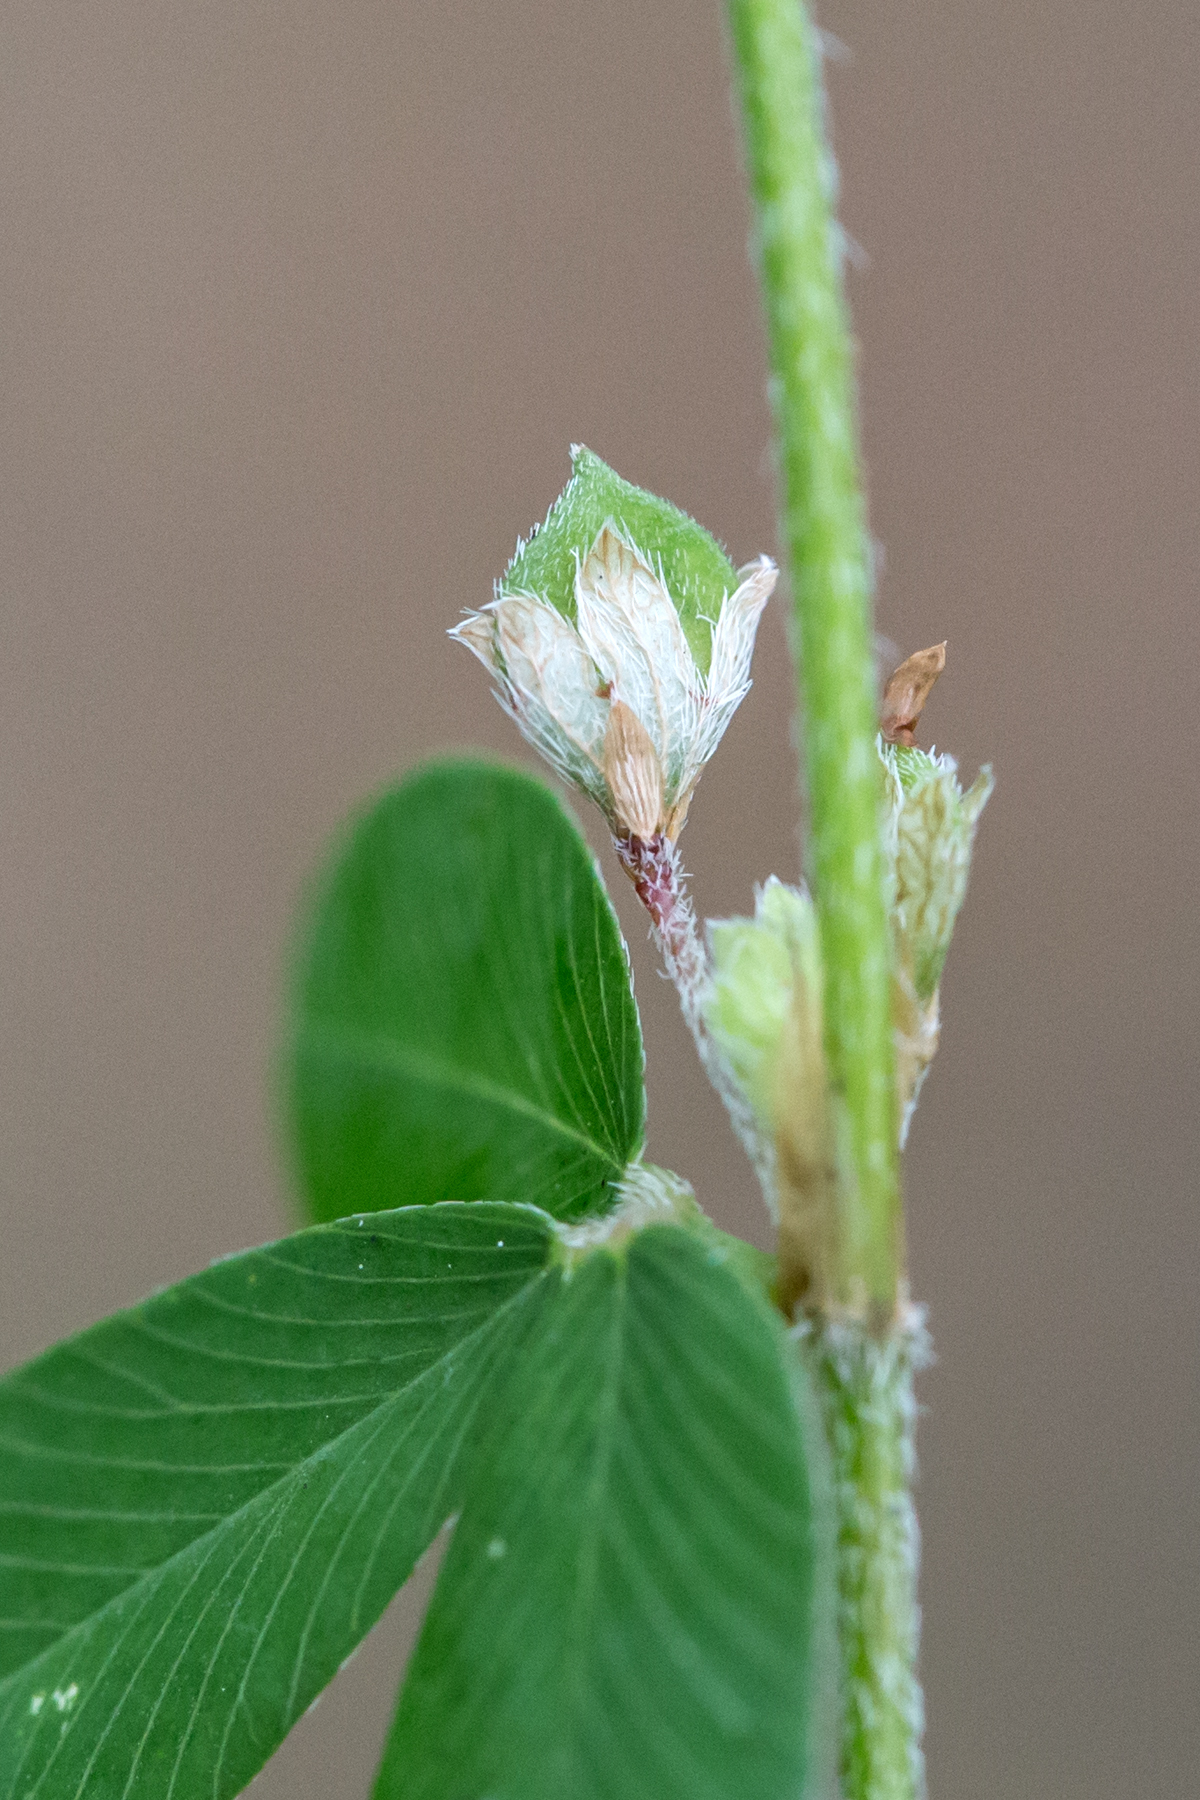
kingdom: Plantae
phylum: Tracheophyta
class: Magnoliopsida
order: Fabales
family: Fabaceae
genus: Kummerowia
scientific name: Kummerowia striata
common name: Japanese clover
